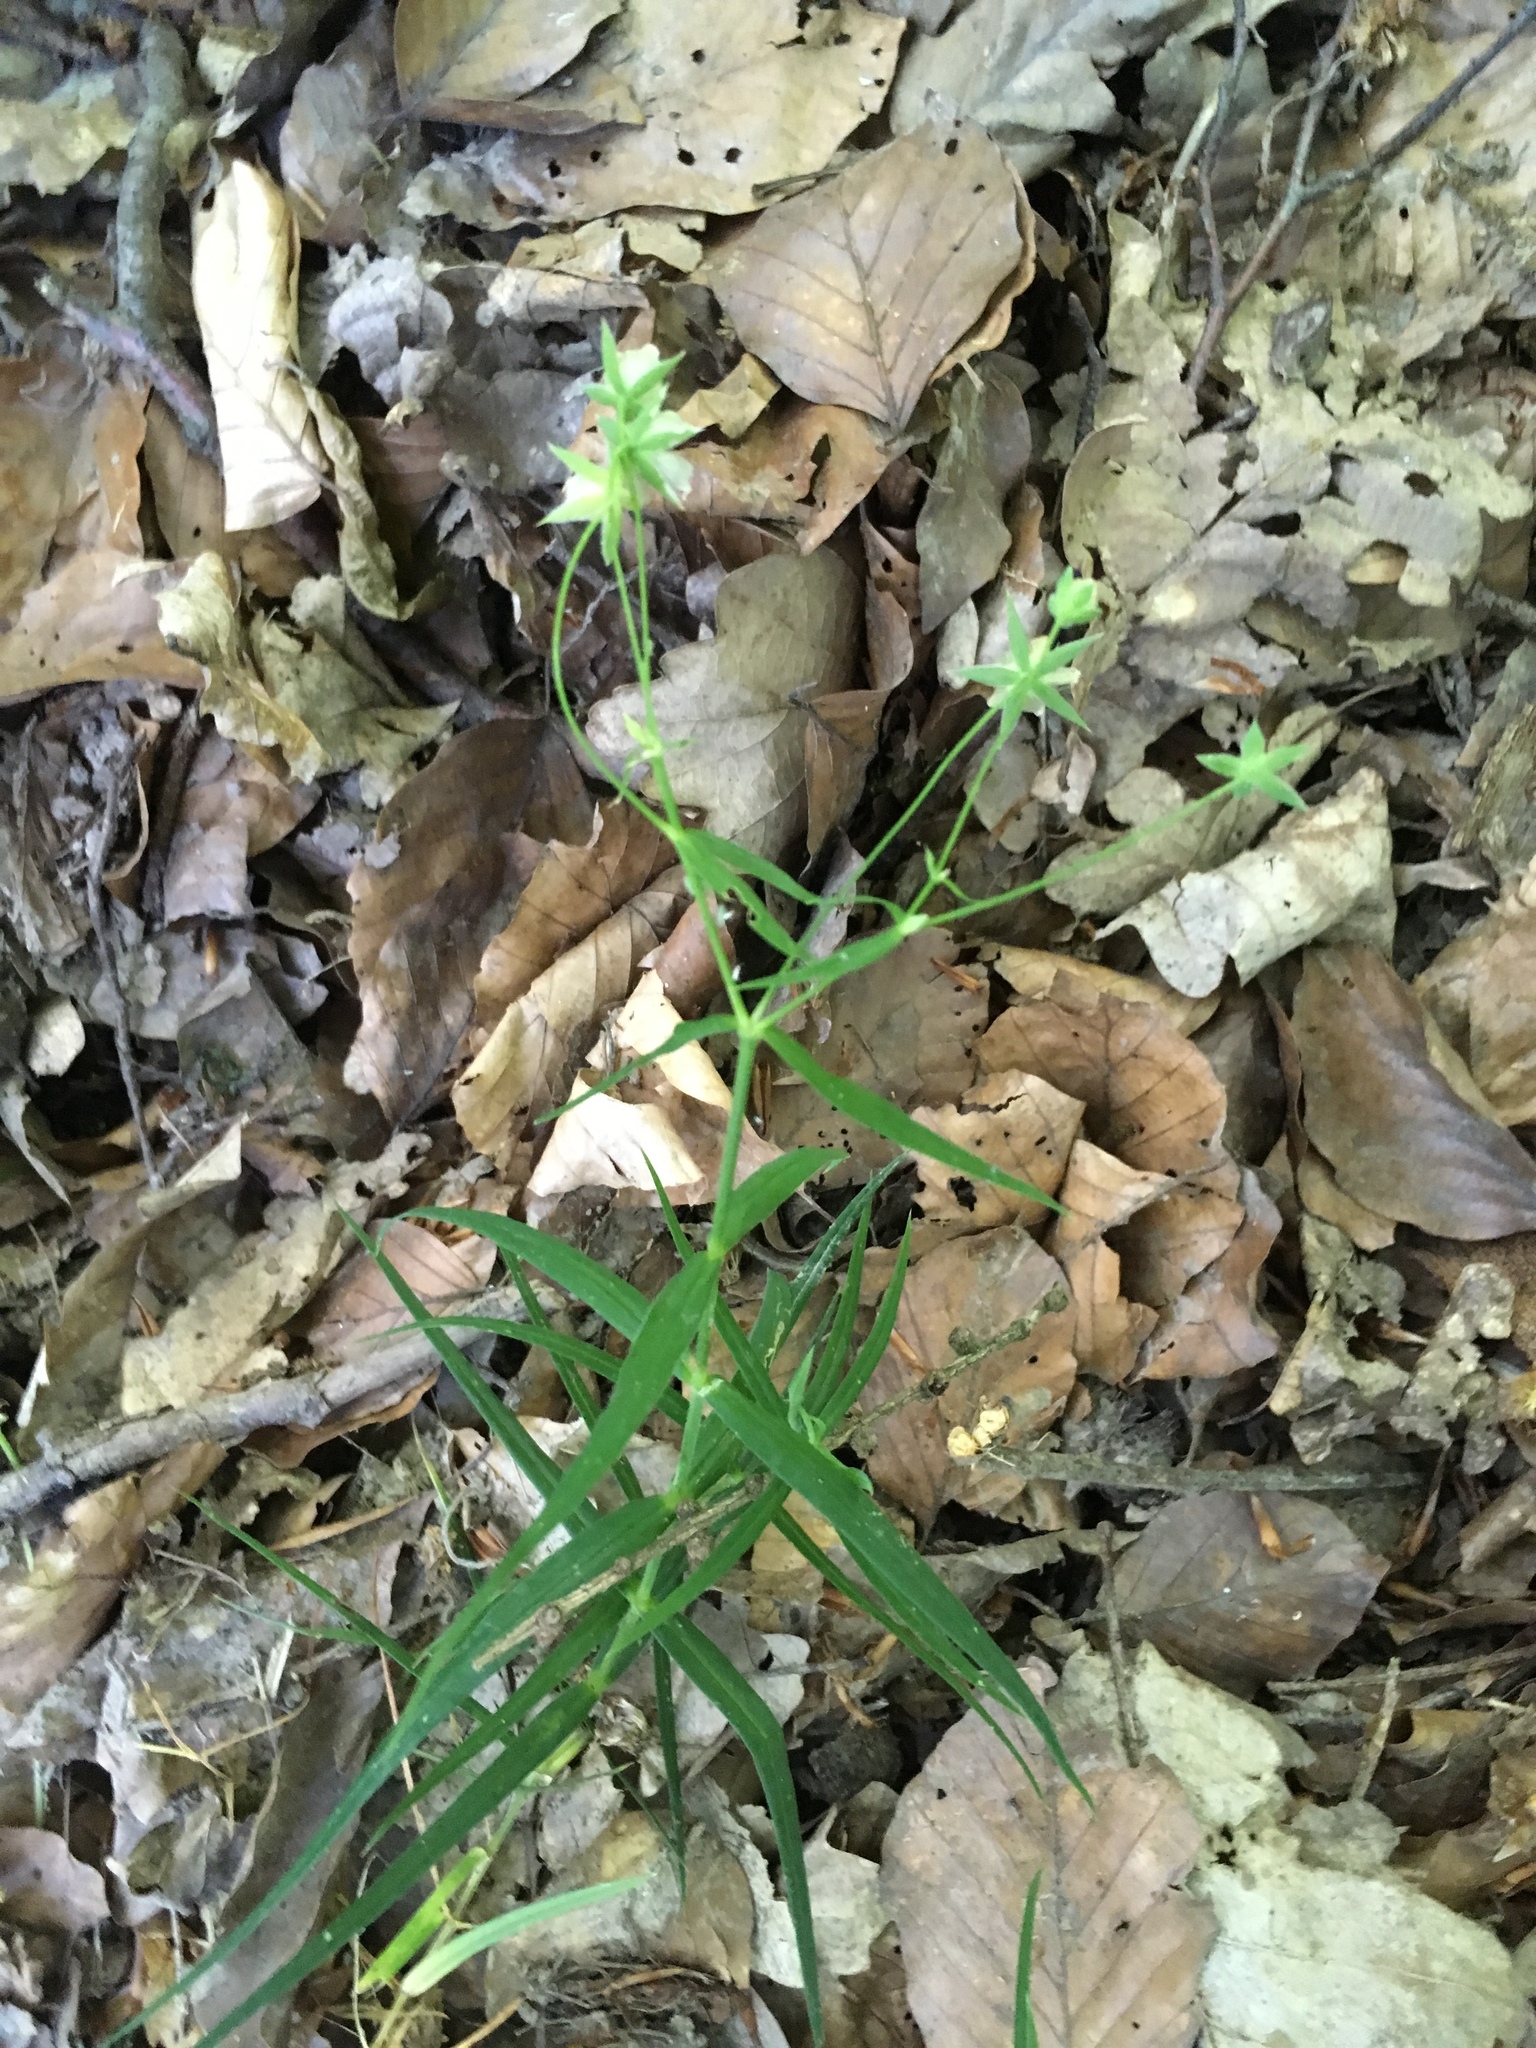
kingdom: Plantae
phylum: Tracheophyta
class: Magnoliopsida
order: Caryophyllales
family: Caryophyllaceae
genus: Rabelera
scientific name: Rabelera holostea
